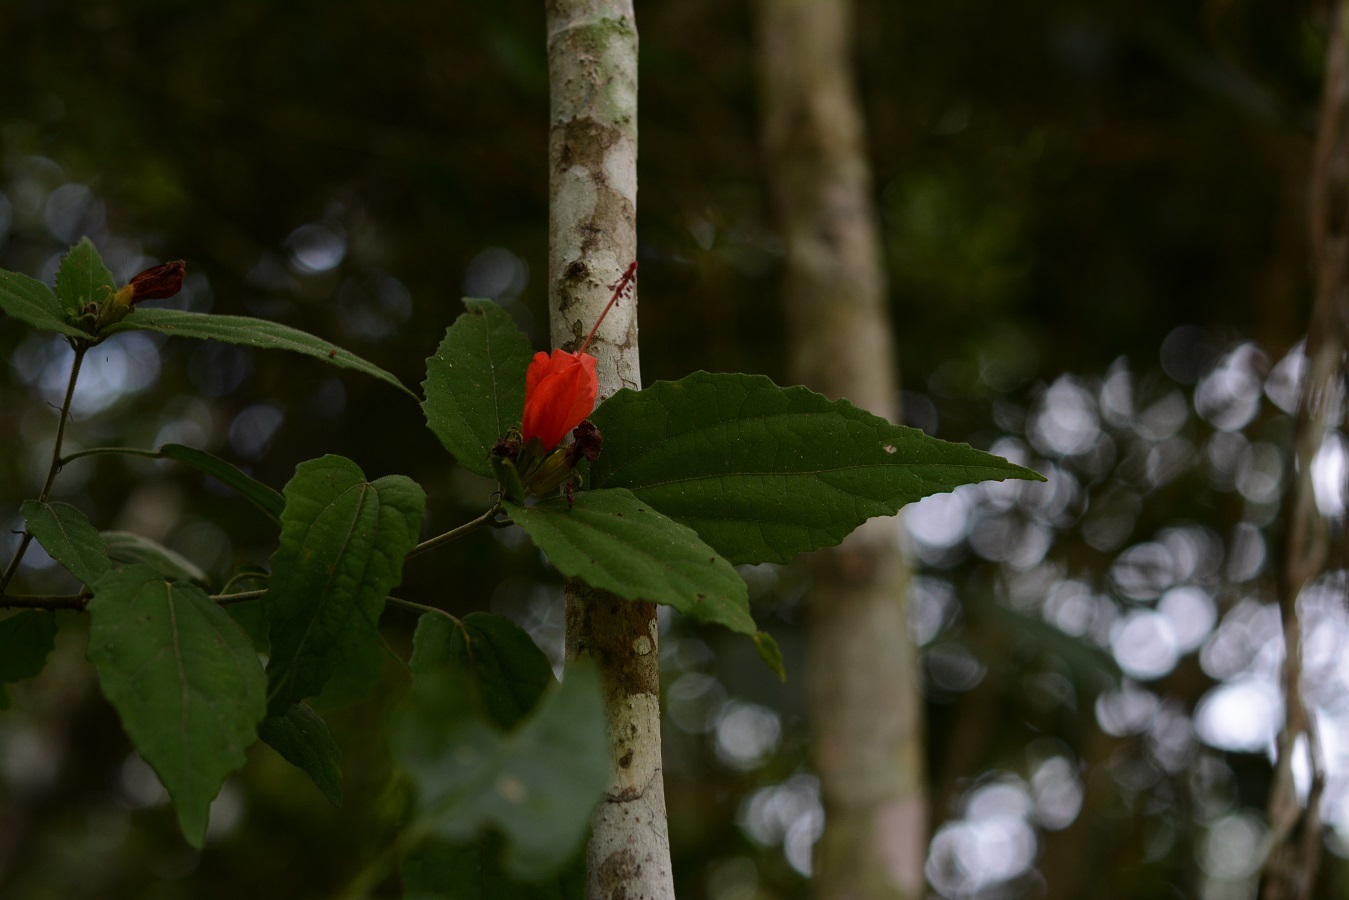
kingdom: Plantae
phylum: Tracheophyta
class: Magnoliopsida
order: Malvales
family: Malvaceae
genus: Malvaviscus
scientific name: Malvaviscus arboreus
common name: Wax mallow
